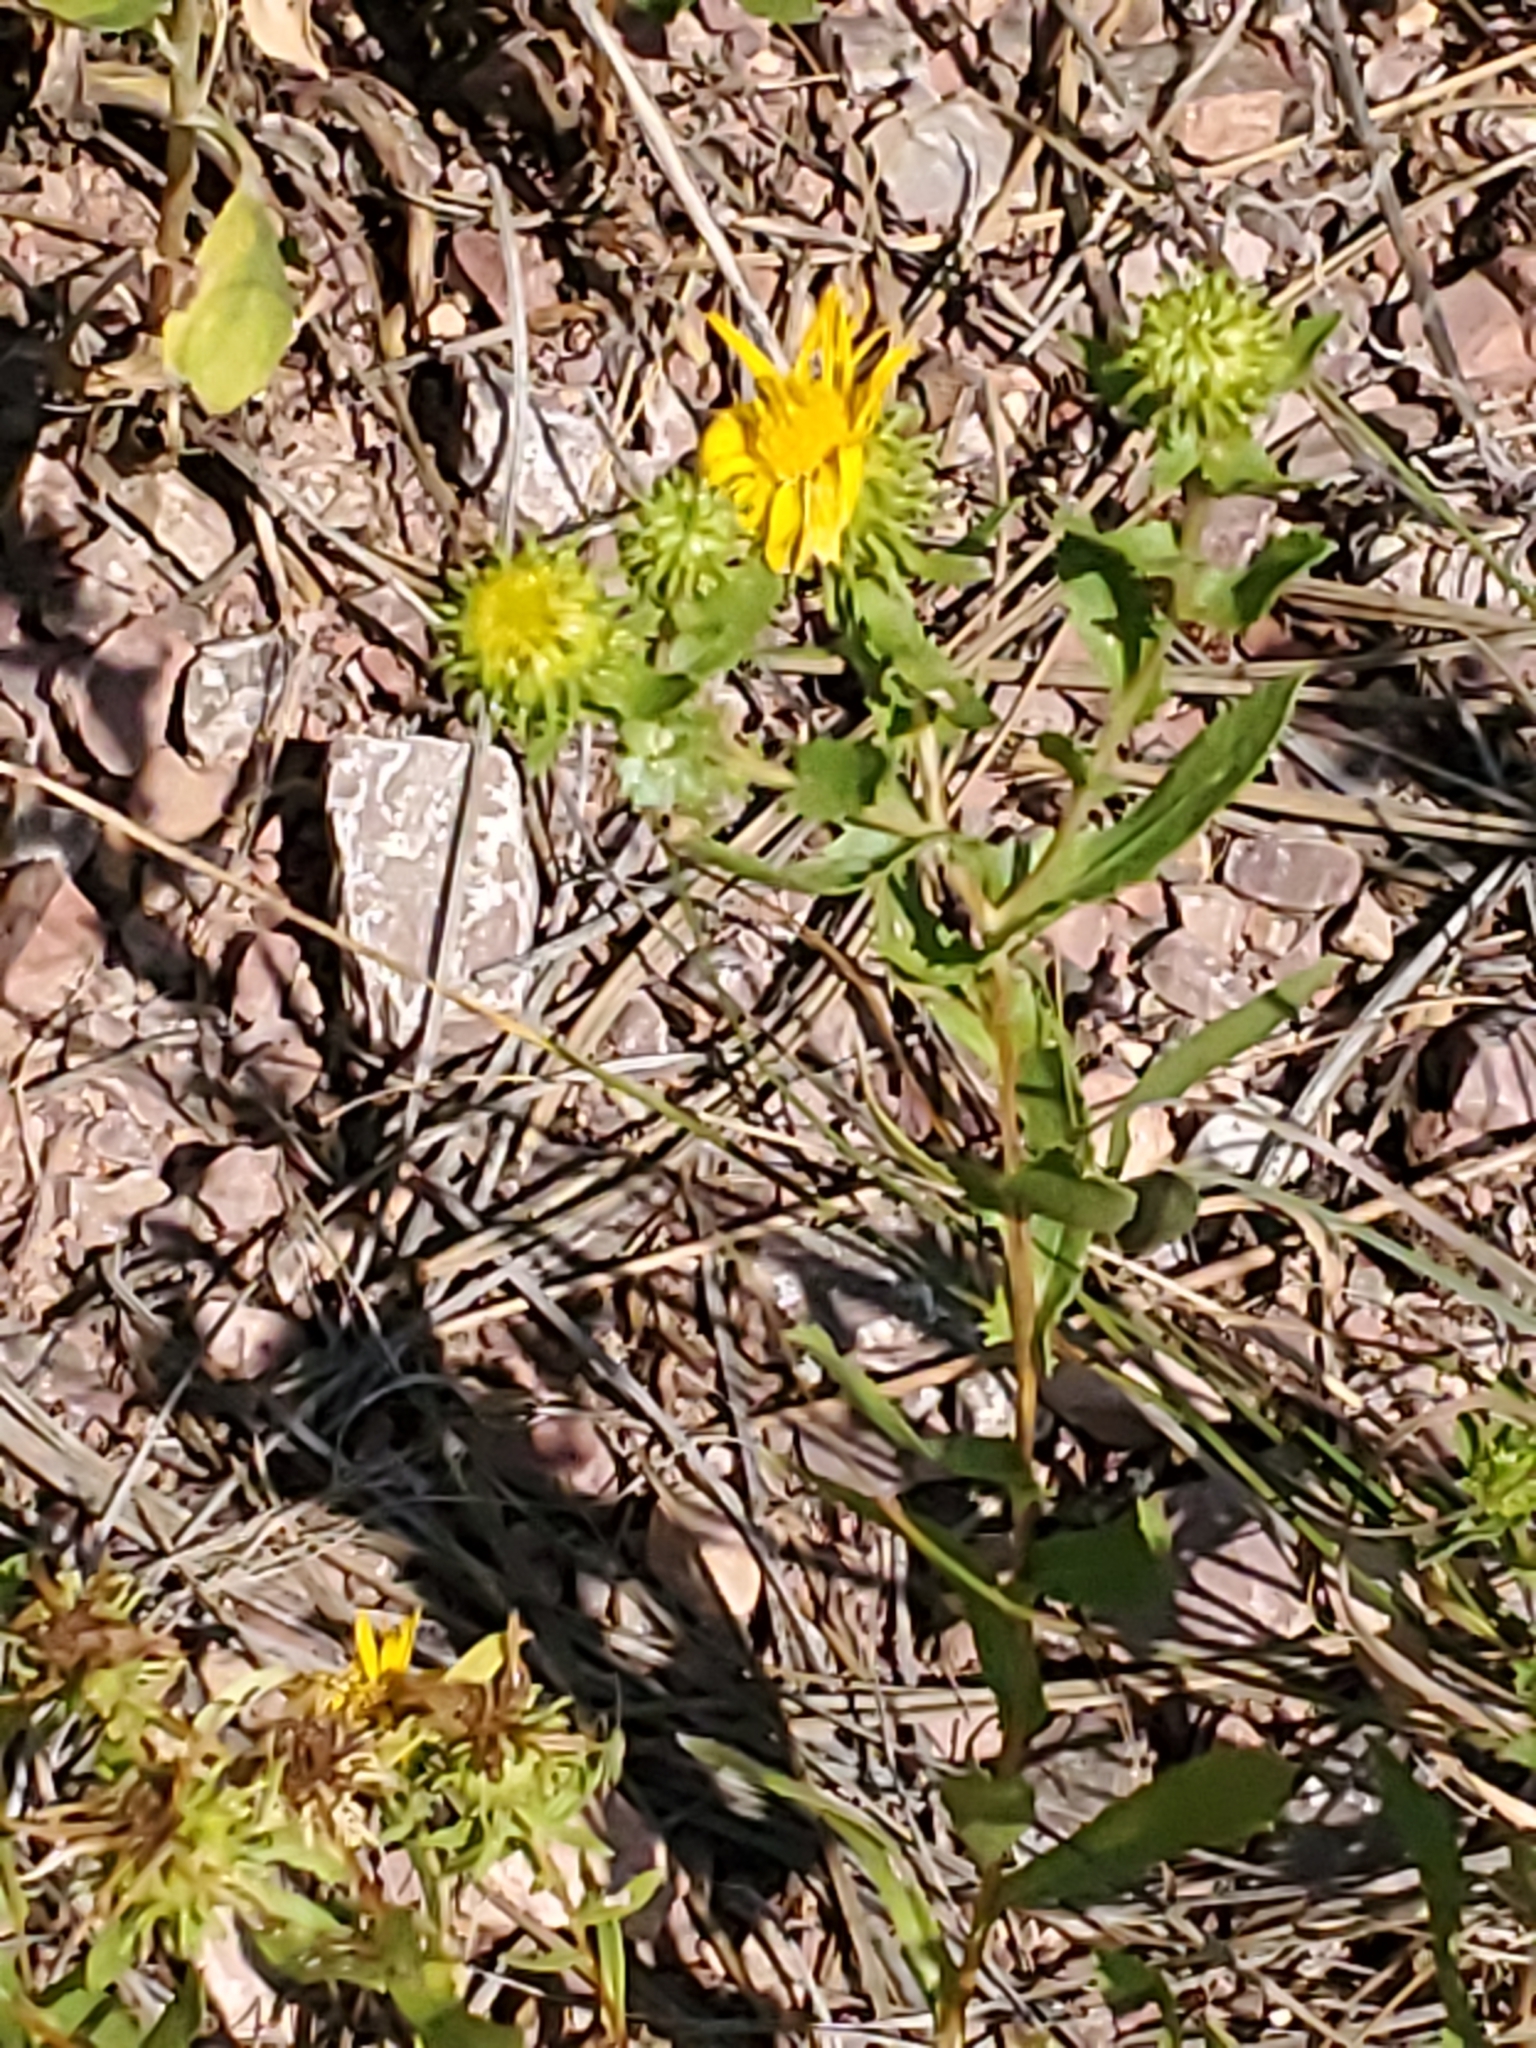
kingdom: Plantae
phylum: Tracheophyta
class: Magnoliopsida
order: Asterales
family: Asteraceae
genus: Grindelia
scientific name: Grindelia squarrosa
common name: Curly-cup gumweed
